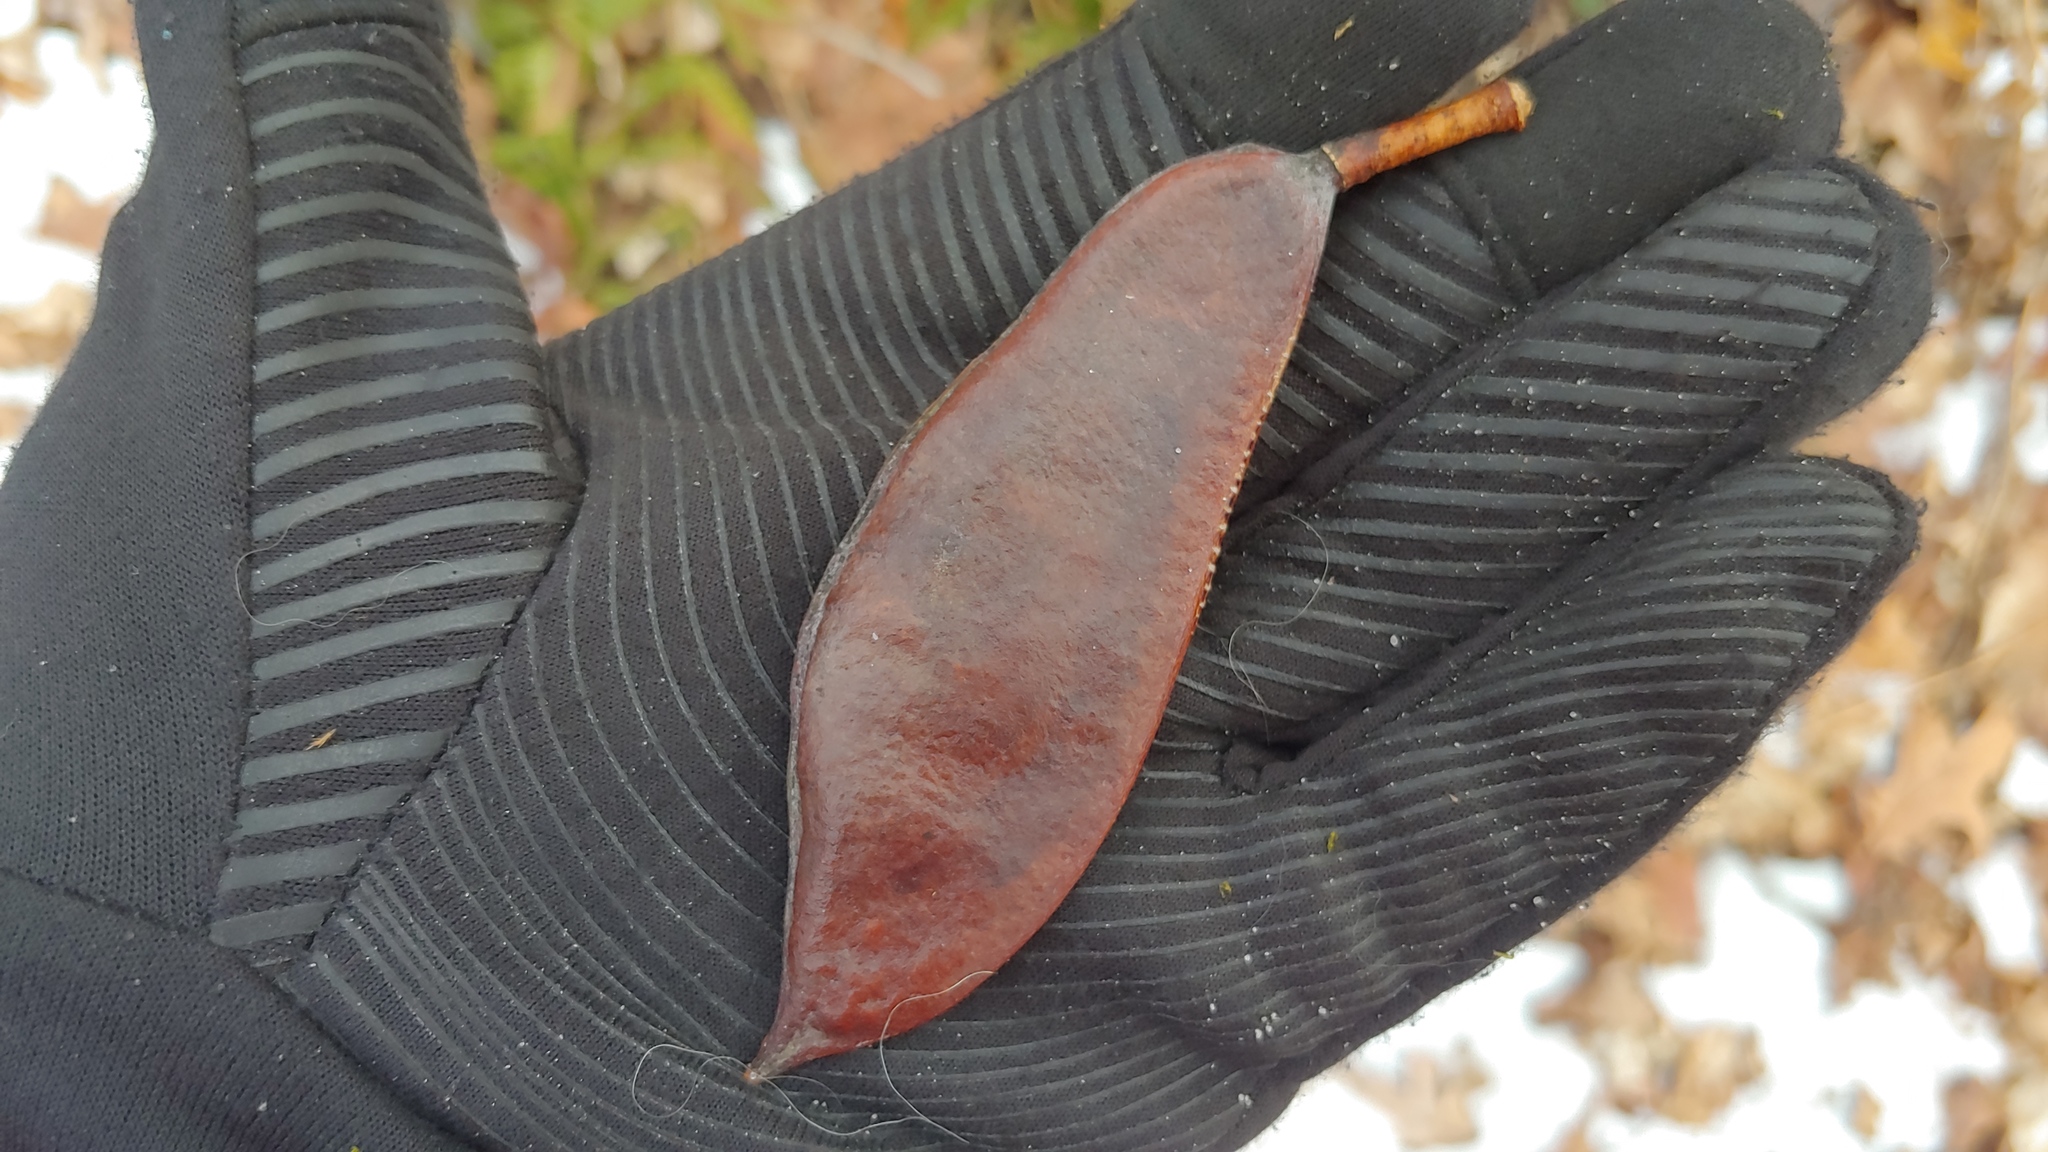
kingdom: Plantae
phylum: Tracheophyta
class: Magnoliopsida
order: Fabales
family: Fabaceae
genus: Gymnocladus
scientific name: Gymnocladus dioicus
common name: Kentucky coffee-tree
